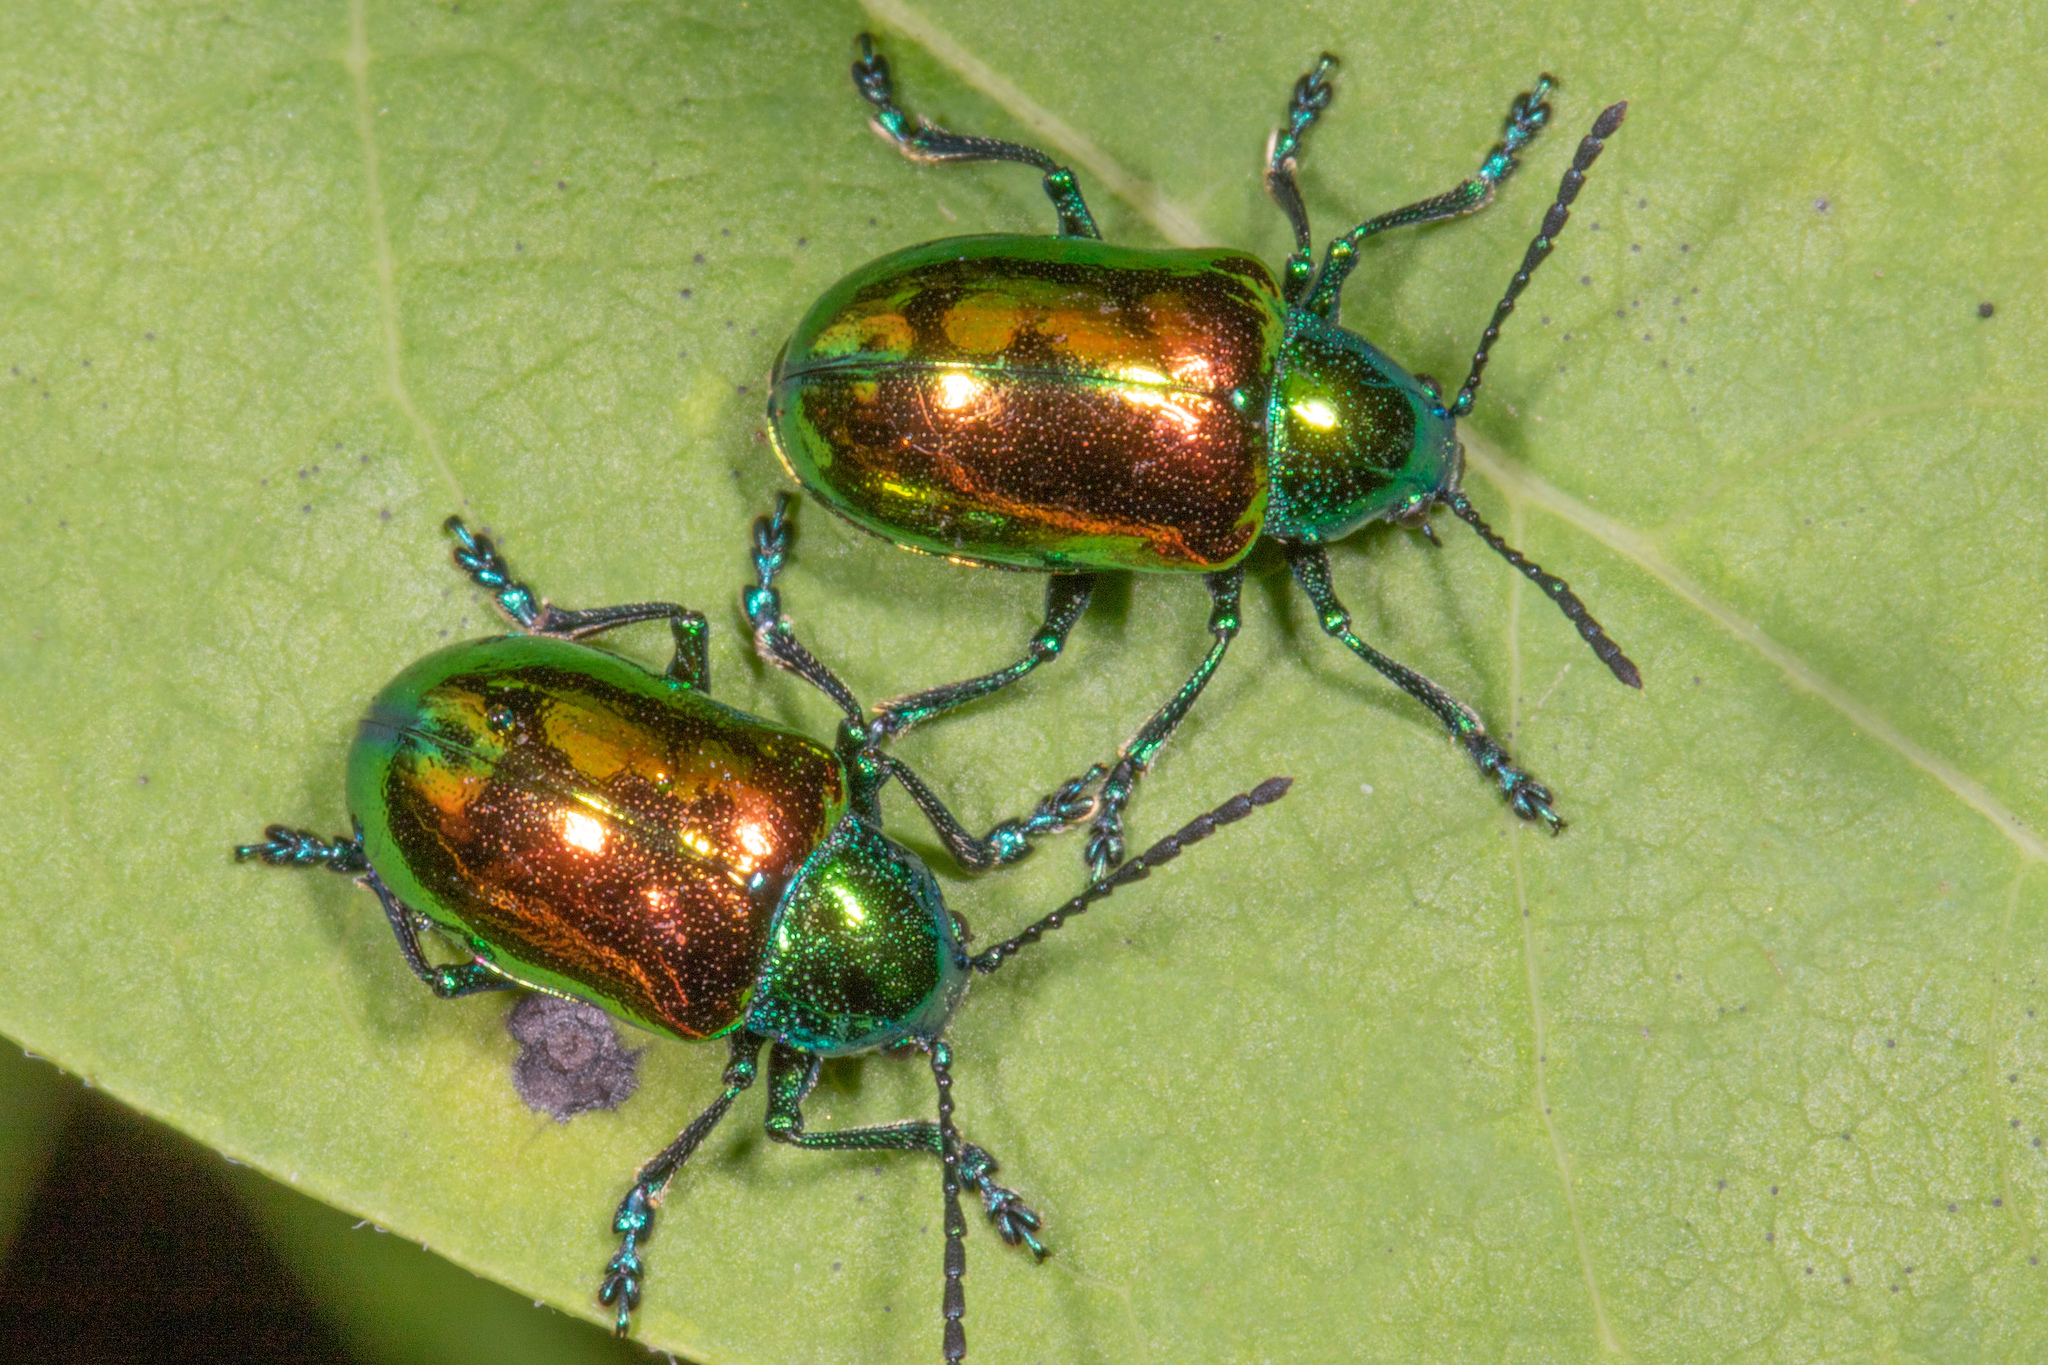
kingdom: Animalia
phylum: Arthropoda
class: Insecta
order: Coleoptera
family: Chrysomelidae
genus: Chrysochus
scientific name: Chrysochus auratus
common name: Dogbane leaf beetle
